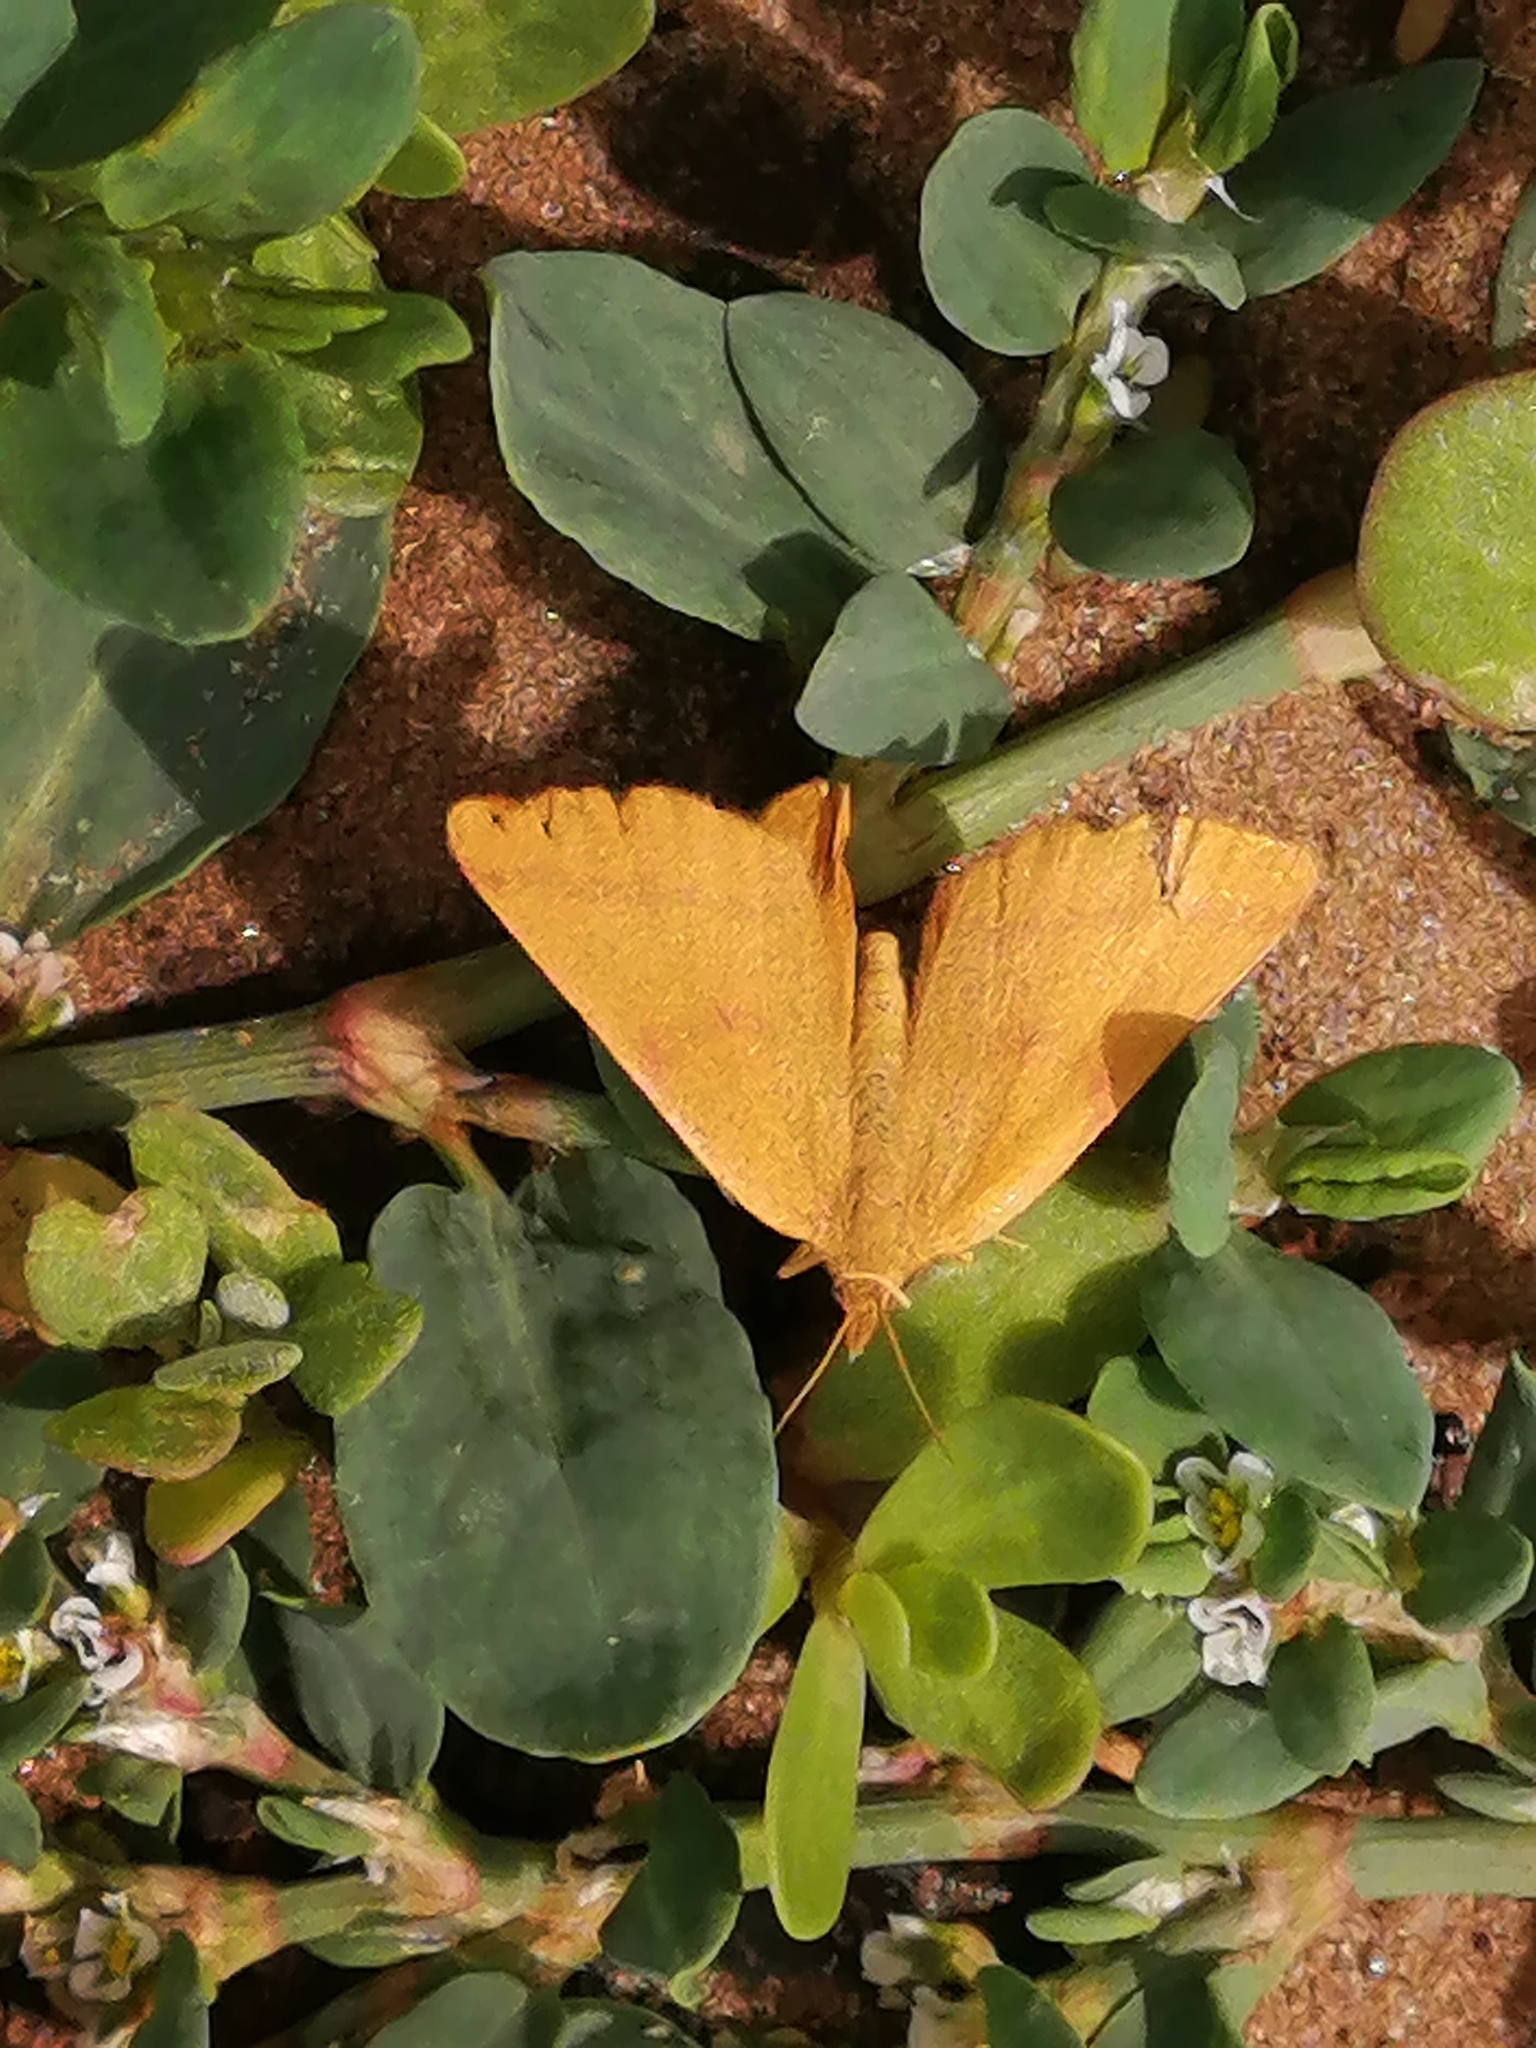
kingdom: Animalia
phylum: Arthropoda
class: Insecta
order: Lepidoptera
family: Geometridae
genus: Lythria
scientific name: Lythria purpuraria
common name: Purple-barred yellow
